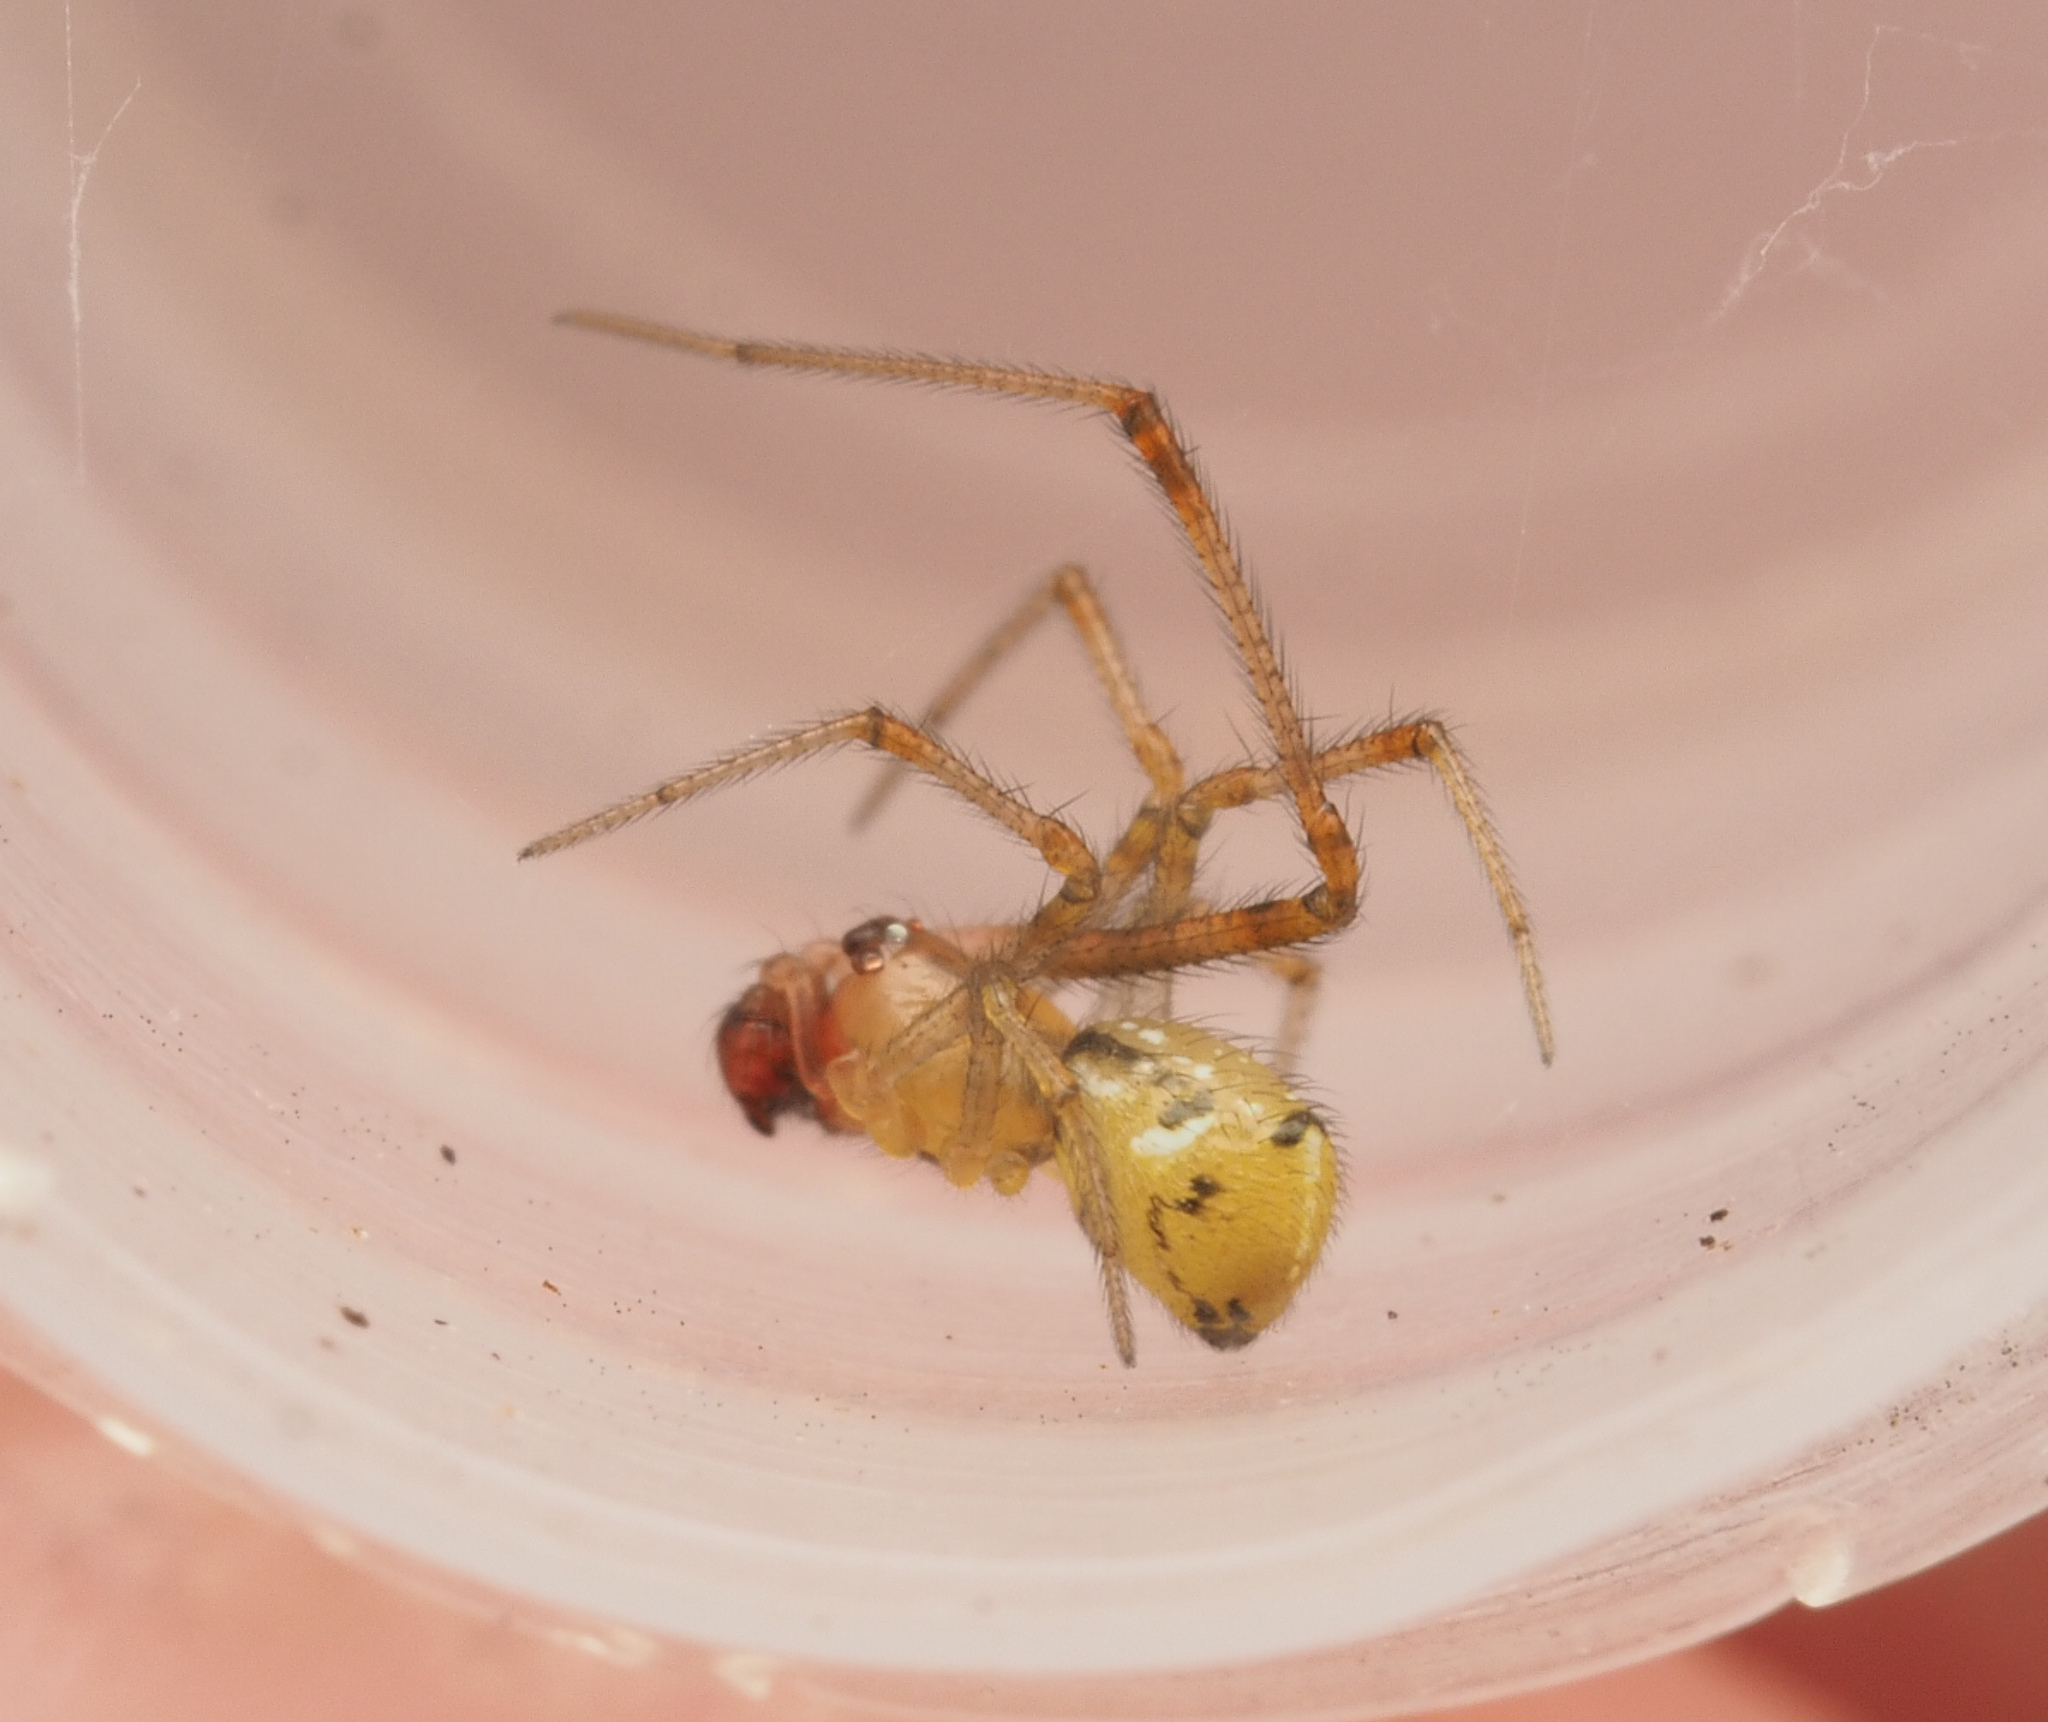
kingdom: Animalia
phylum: Arthropoda
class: Arachnida
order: Araneae
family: Theridiidae
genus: Cryptachaea
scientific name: Cryptachaea
